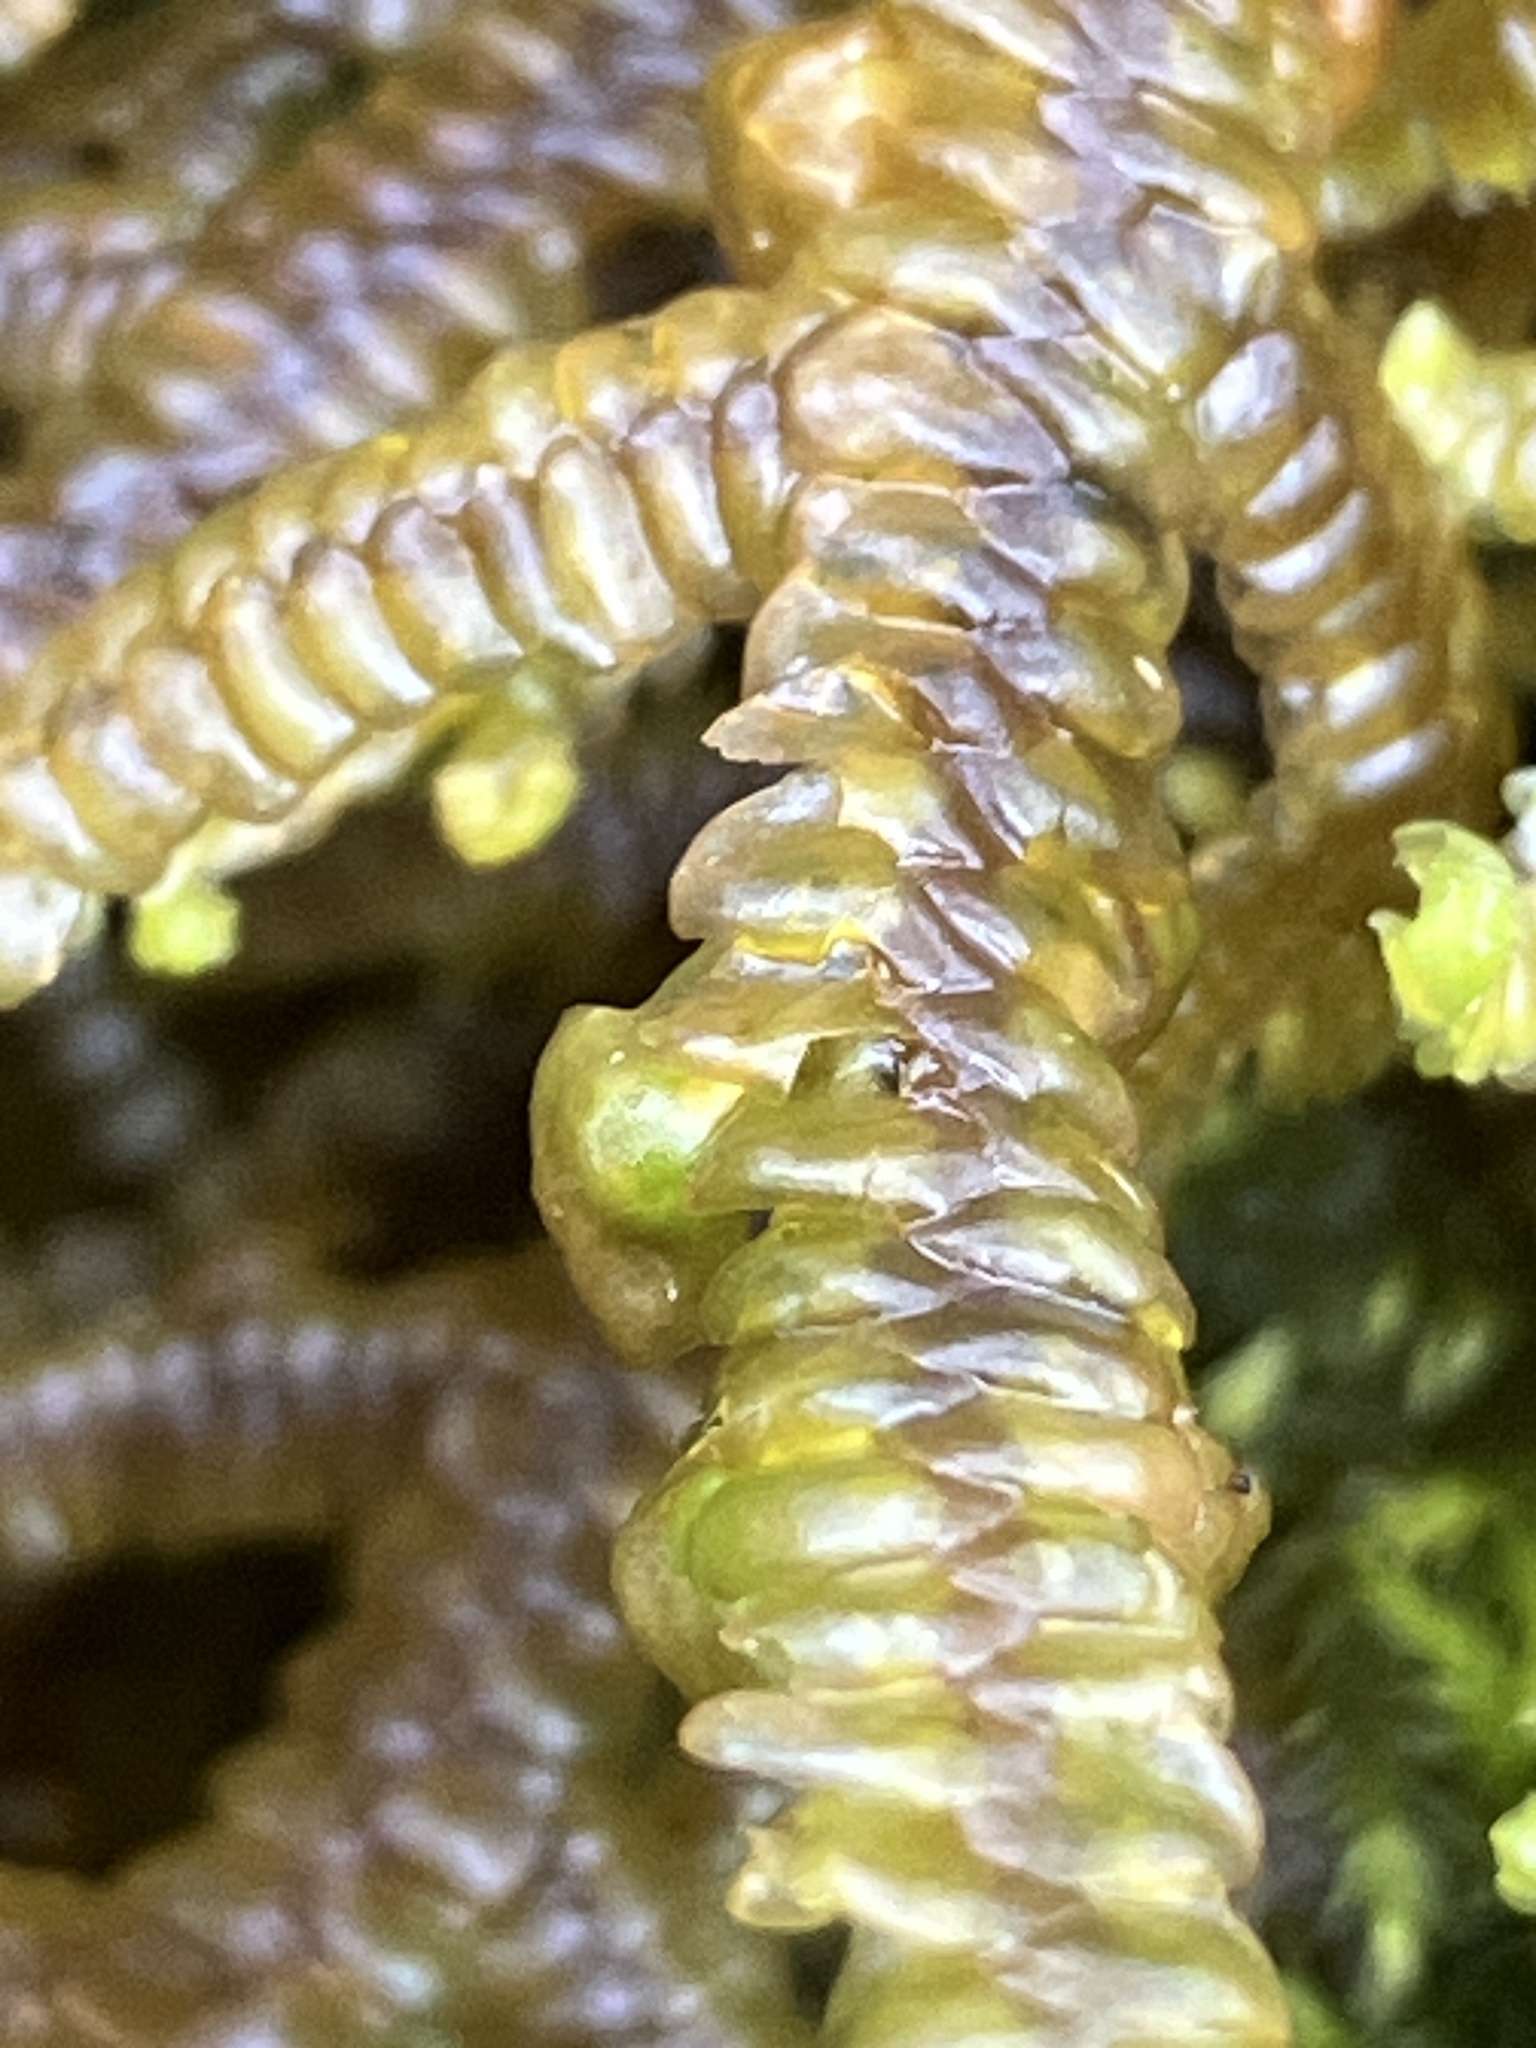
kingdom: Plantae
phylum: Marchantiophyta
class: Jungermanniopsida
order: Porellales
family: Porellaceae
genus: Porella
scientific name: Porella navicularis
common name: Tree ruffle liverwort
